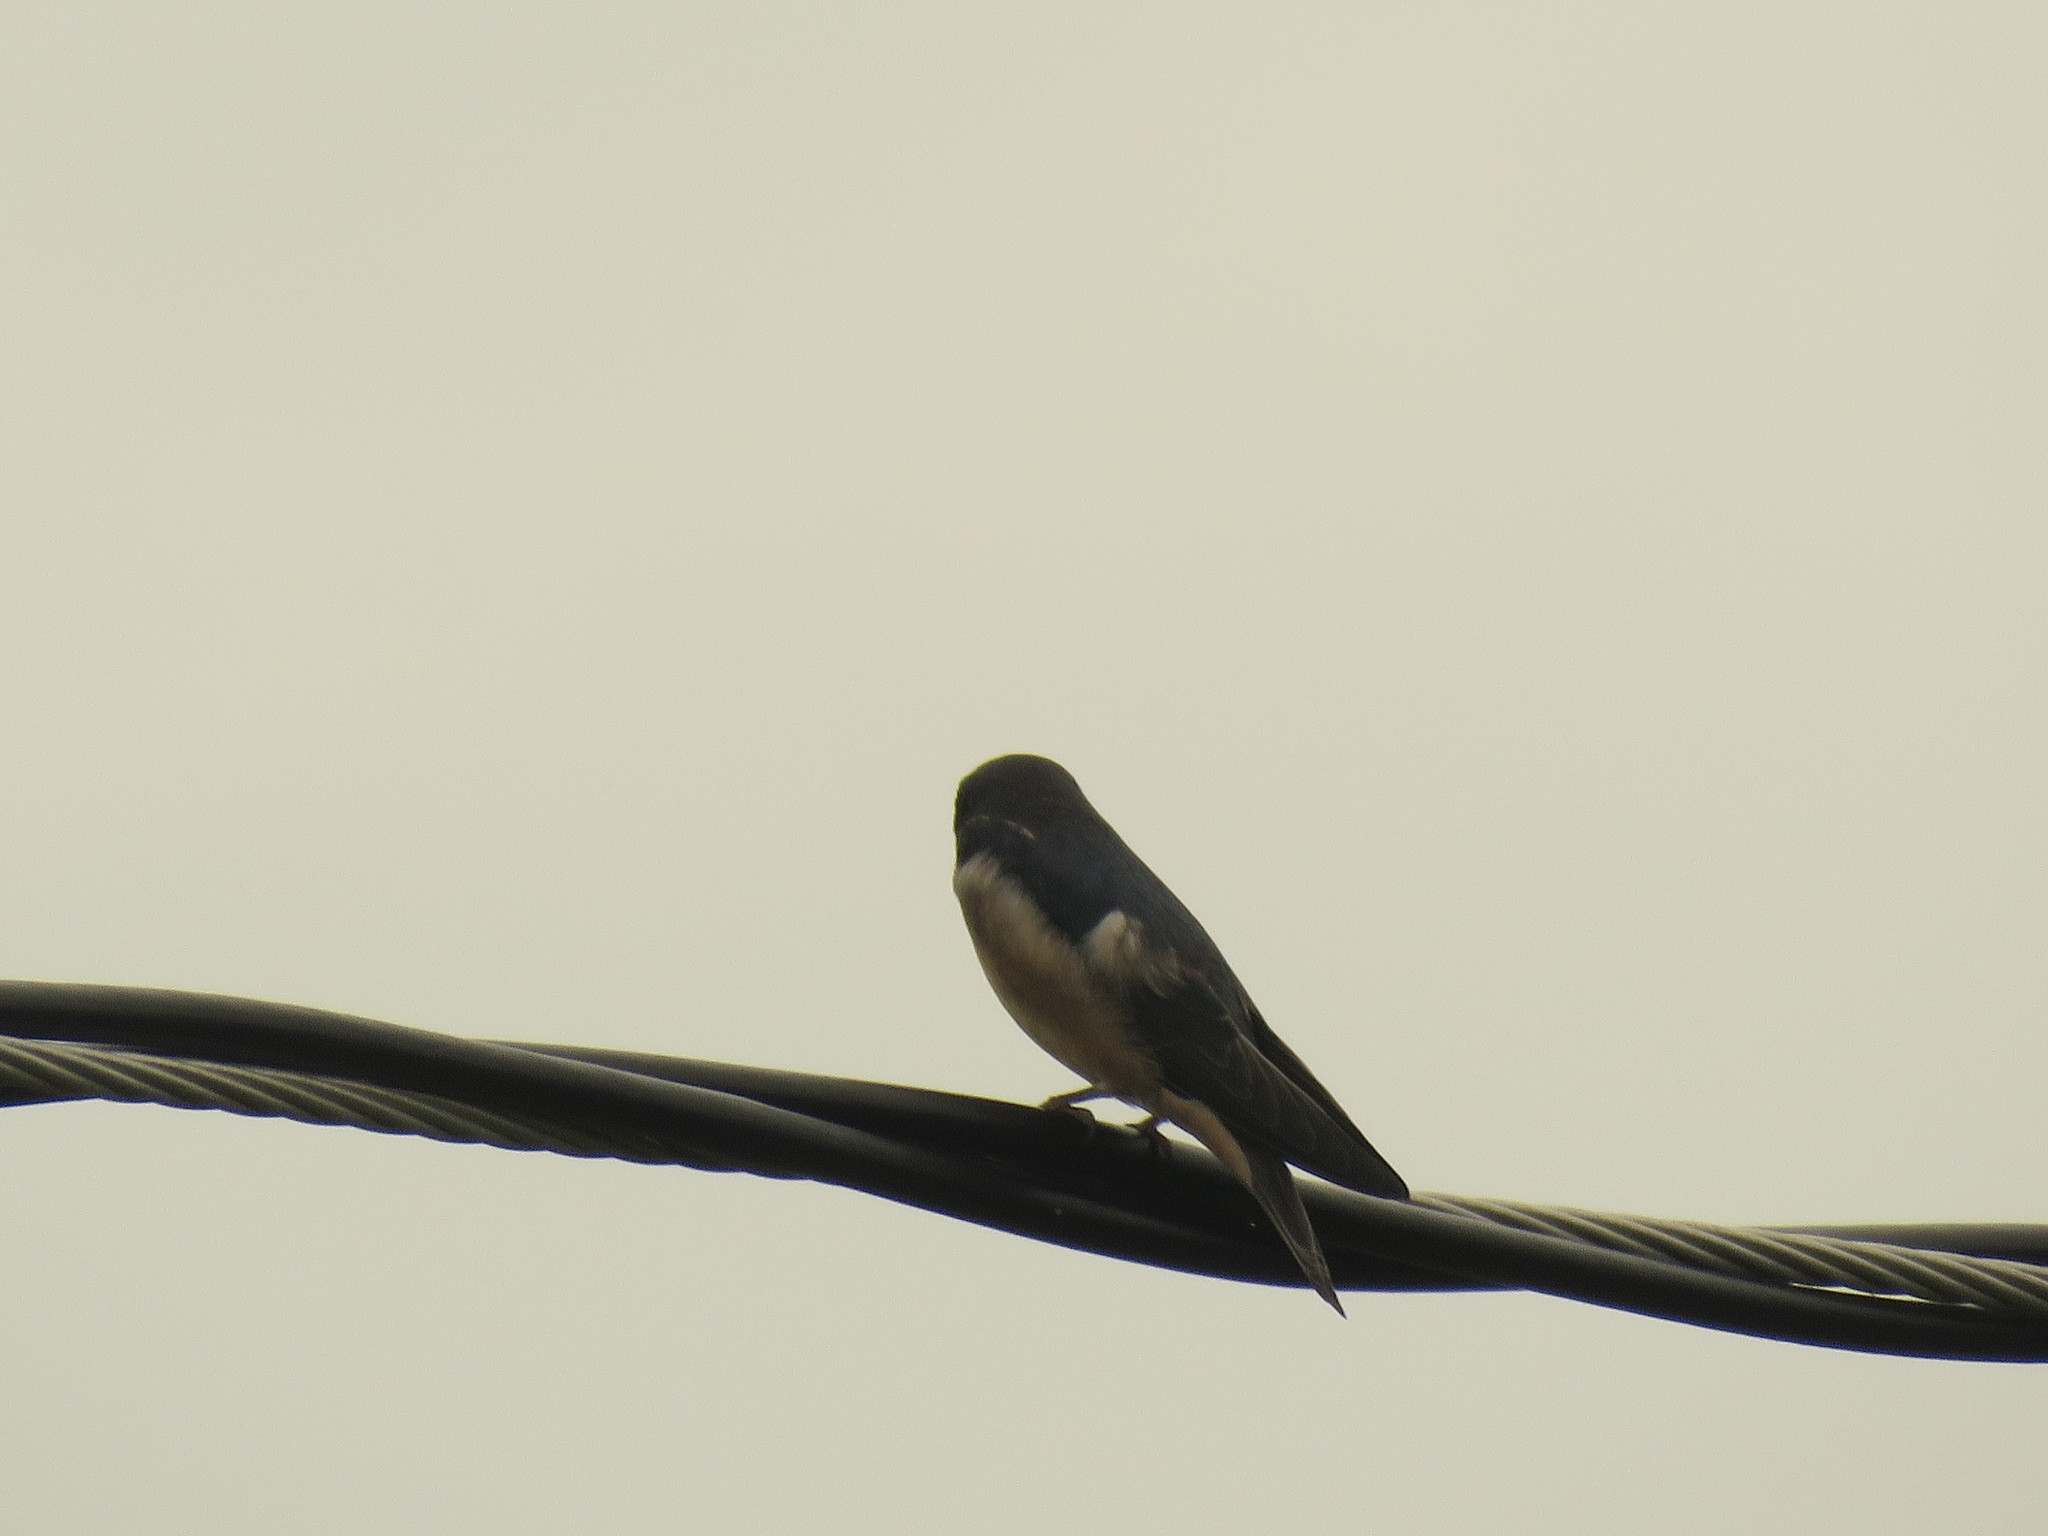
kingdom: Animalia
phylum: Chordata
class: Aves
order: Passeriformes
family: Hirundinidae
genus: Hirundo
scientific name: Hirundo rustica
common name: Barn swallow
